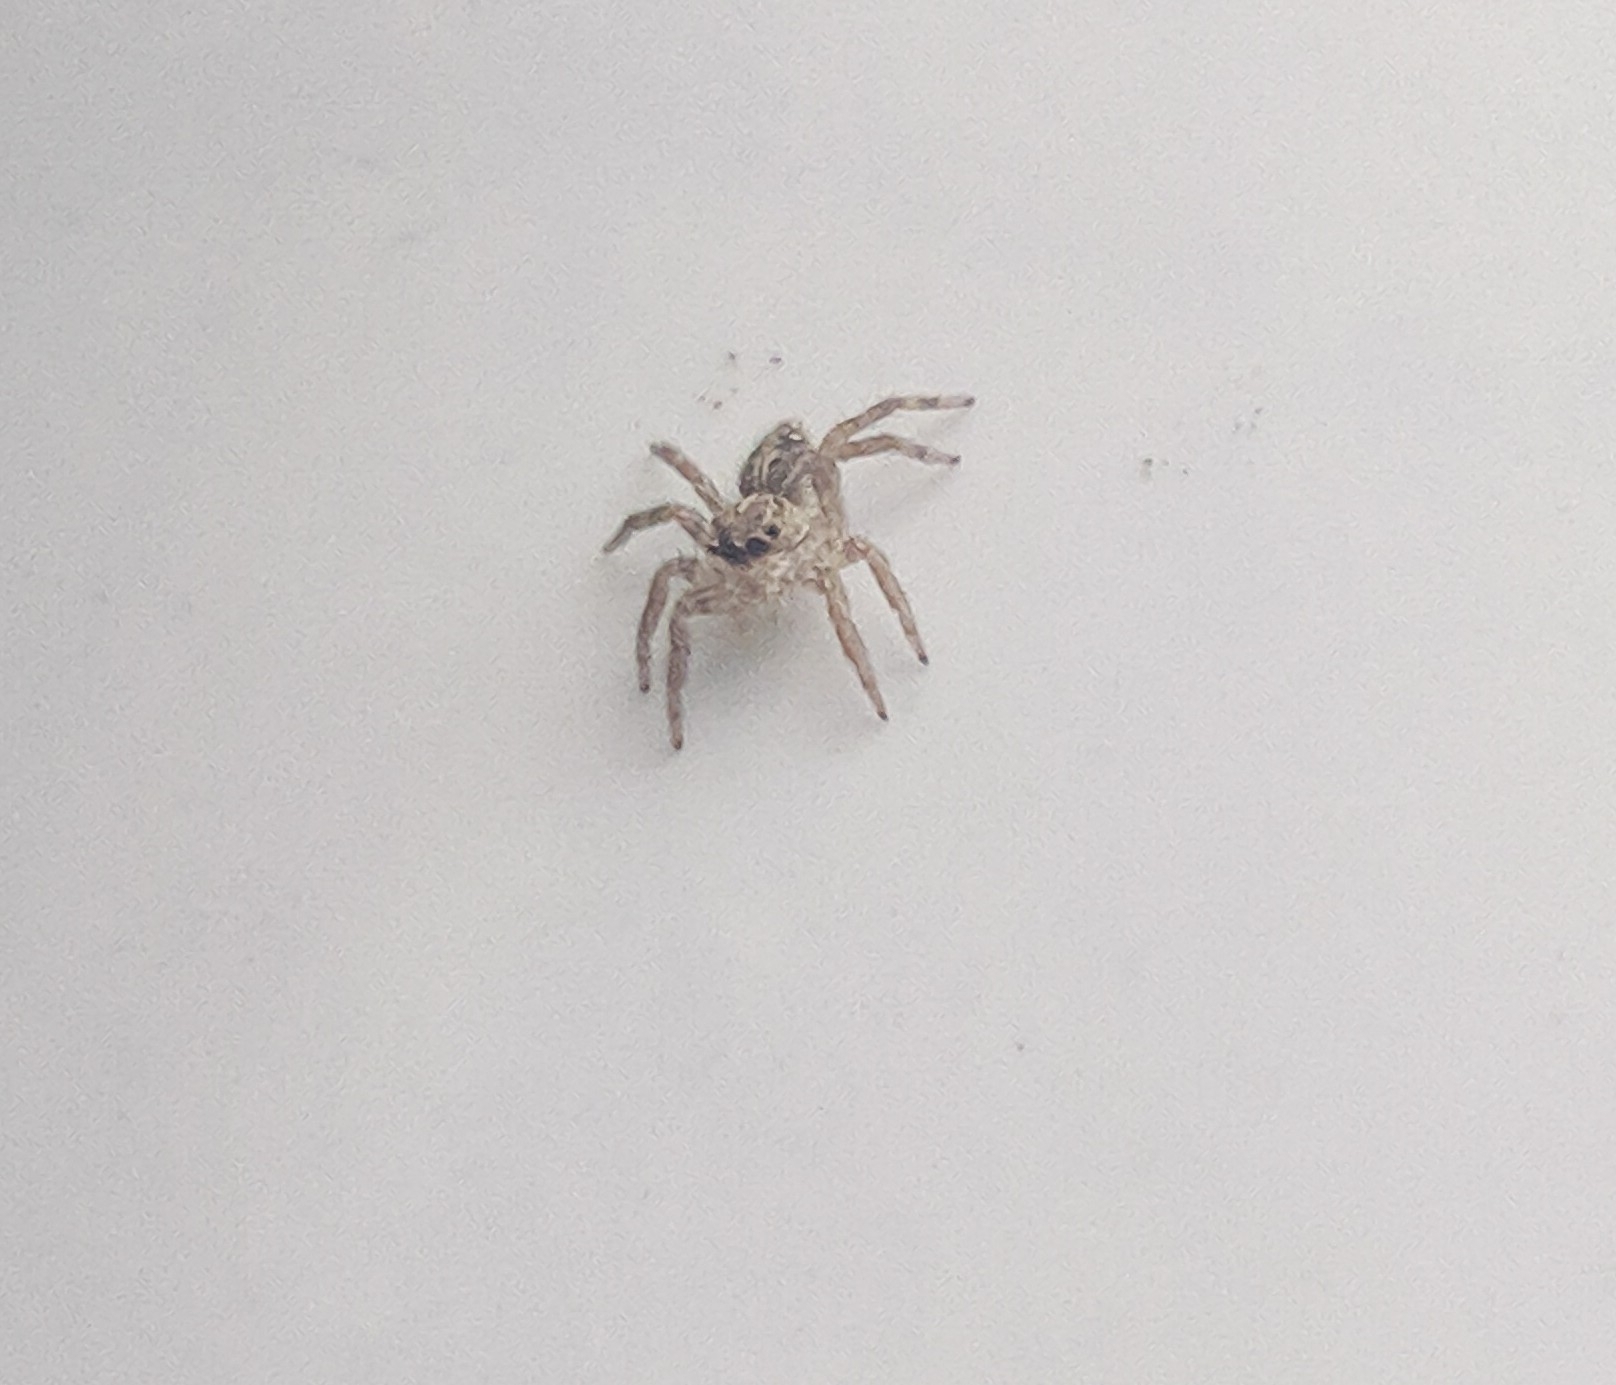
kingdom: Animalia
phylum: Arthropoda
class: Arachnida
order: Araneae
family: Salticidae
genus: Plexippus
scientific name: Plexippus paykulli
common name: Pantropical jumper
